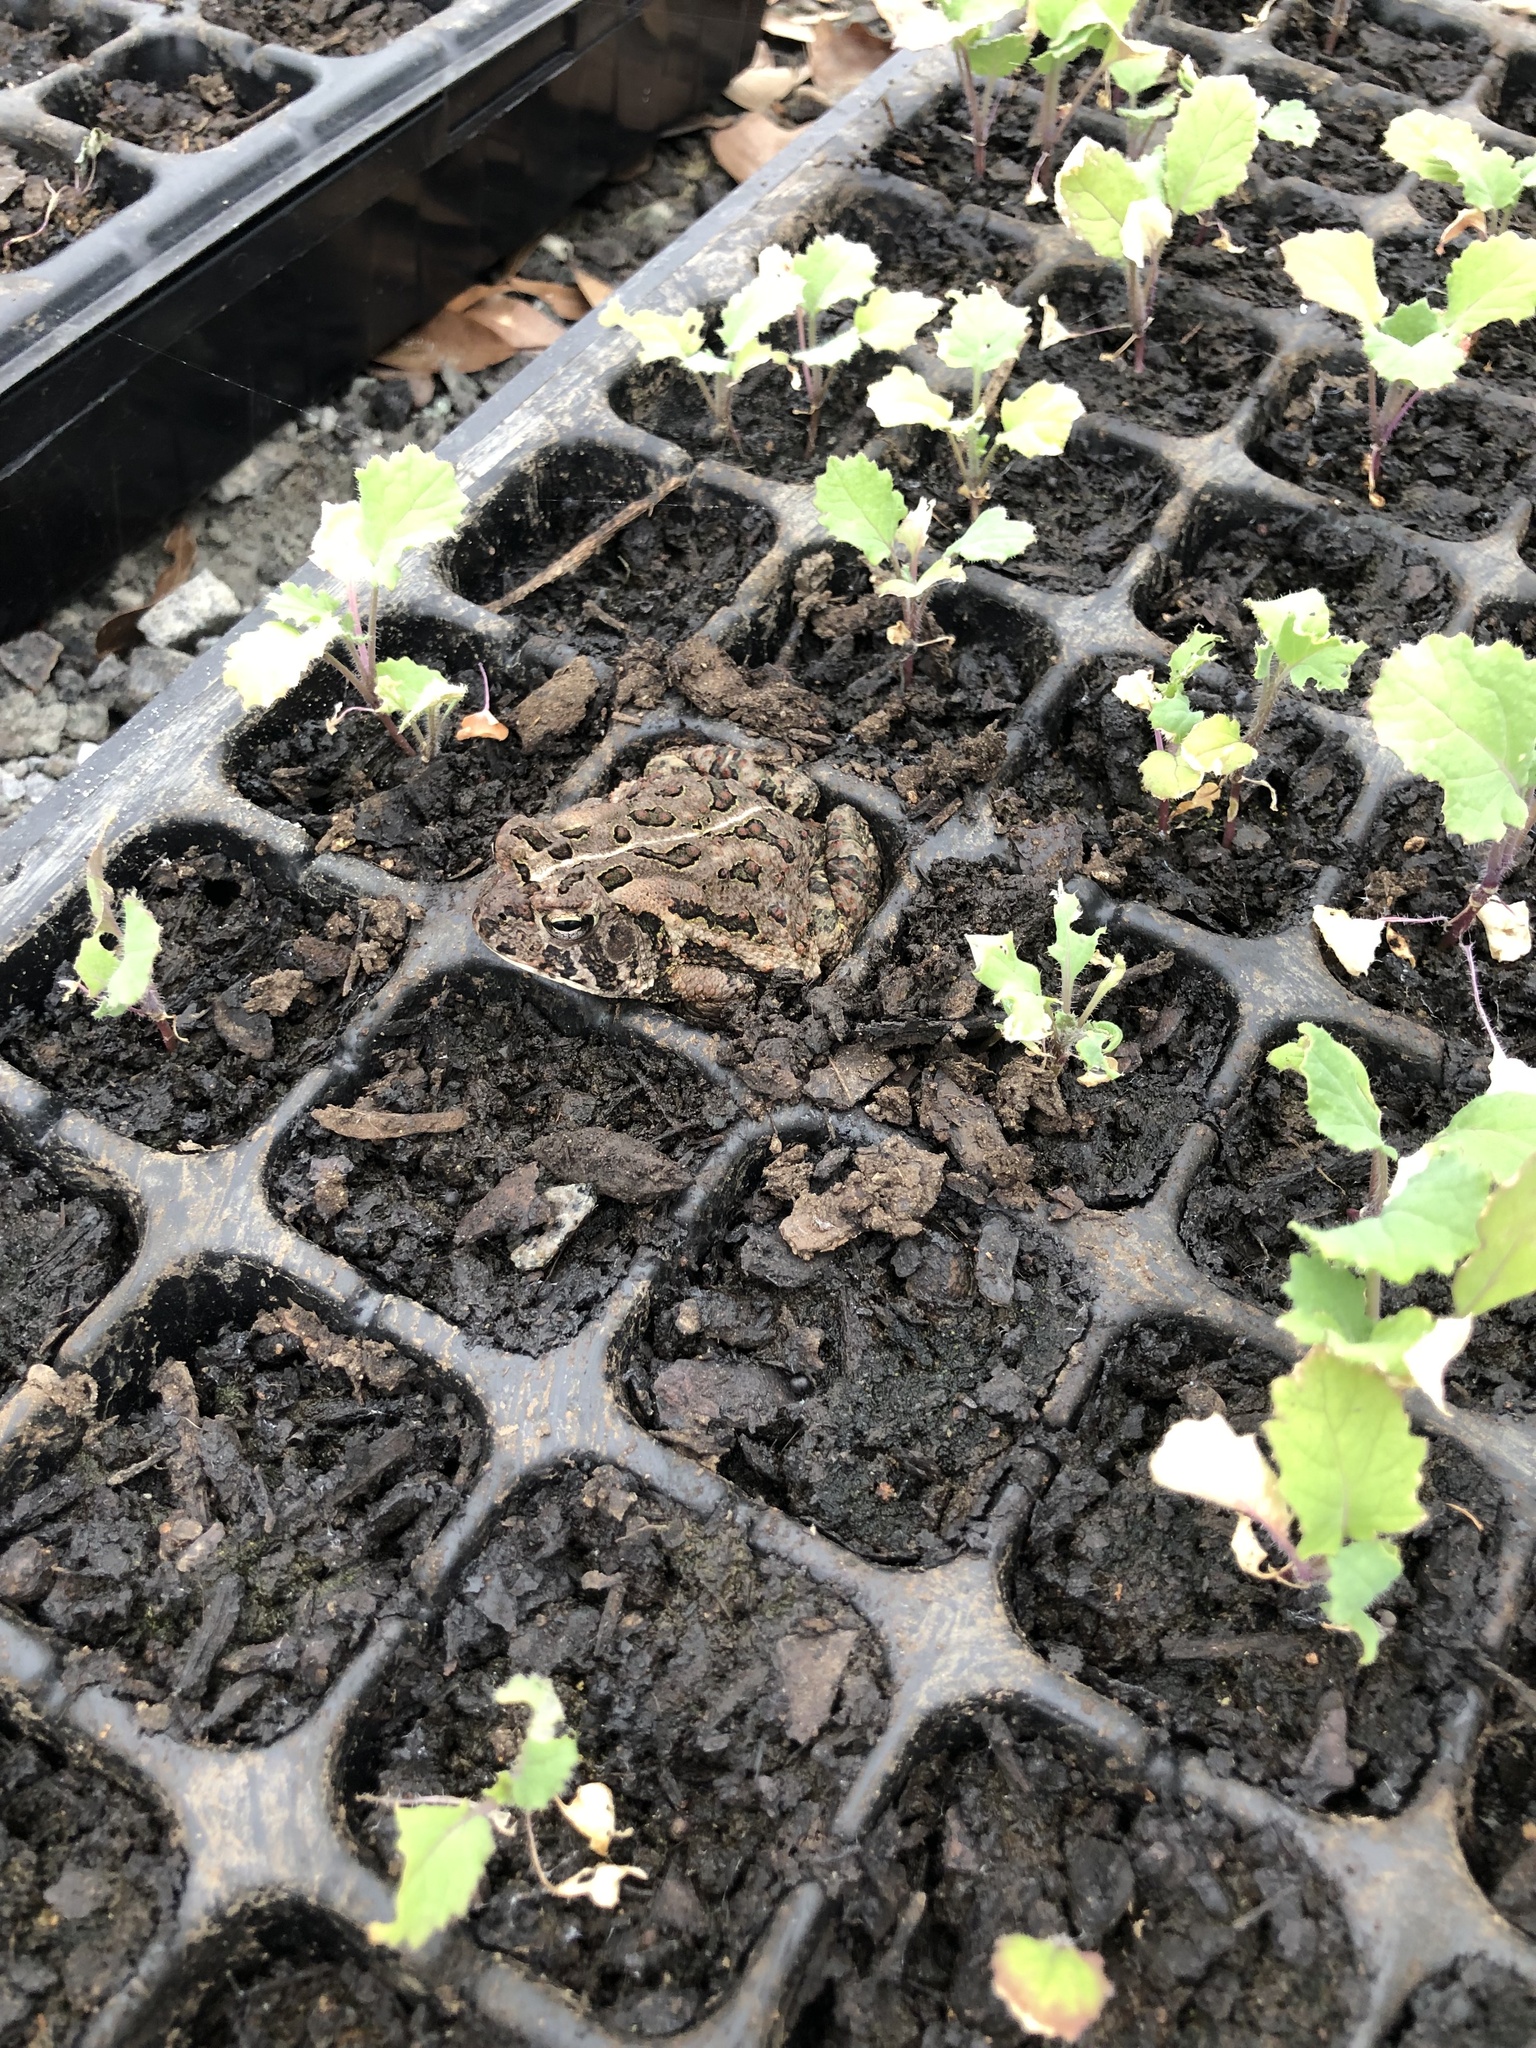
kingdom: Animalia
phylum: Chordata
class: Amphibia
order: Anura
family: Bufonidae
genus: Anaxyrus
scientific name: Anaxyrus fowleri
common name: Fowler's toad
